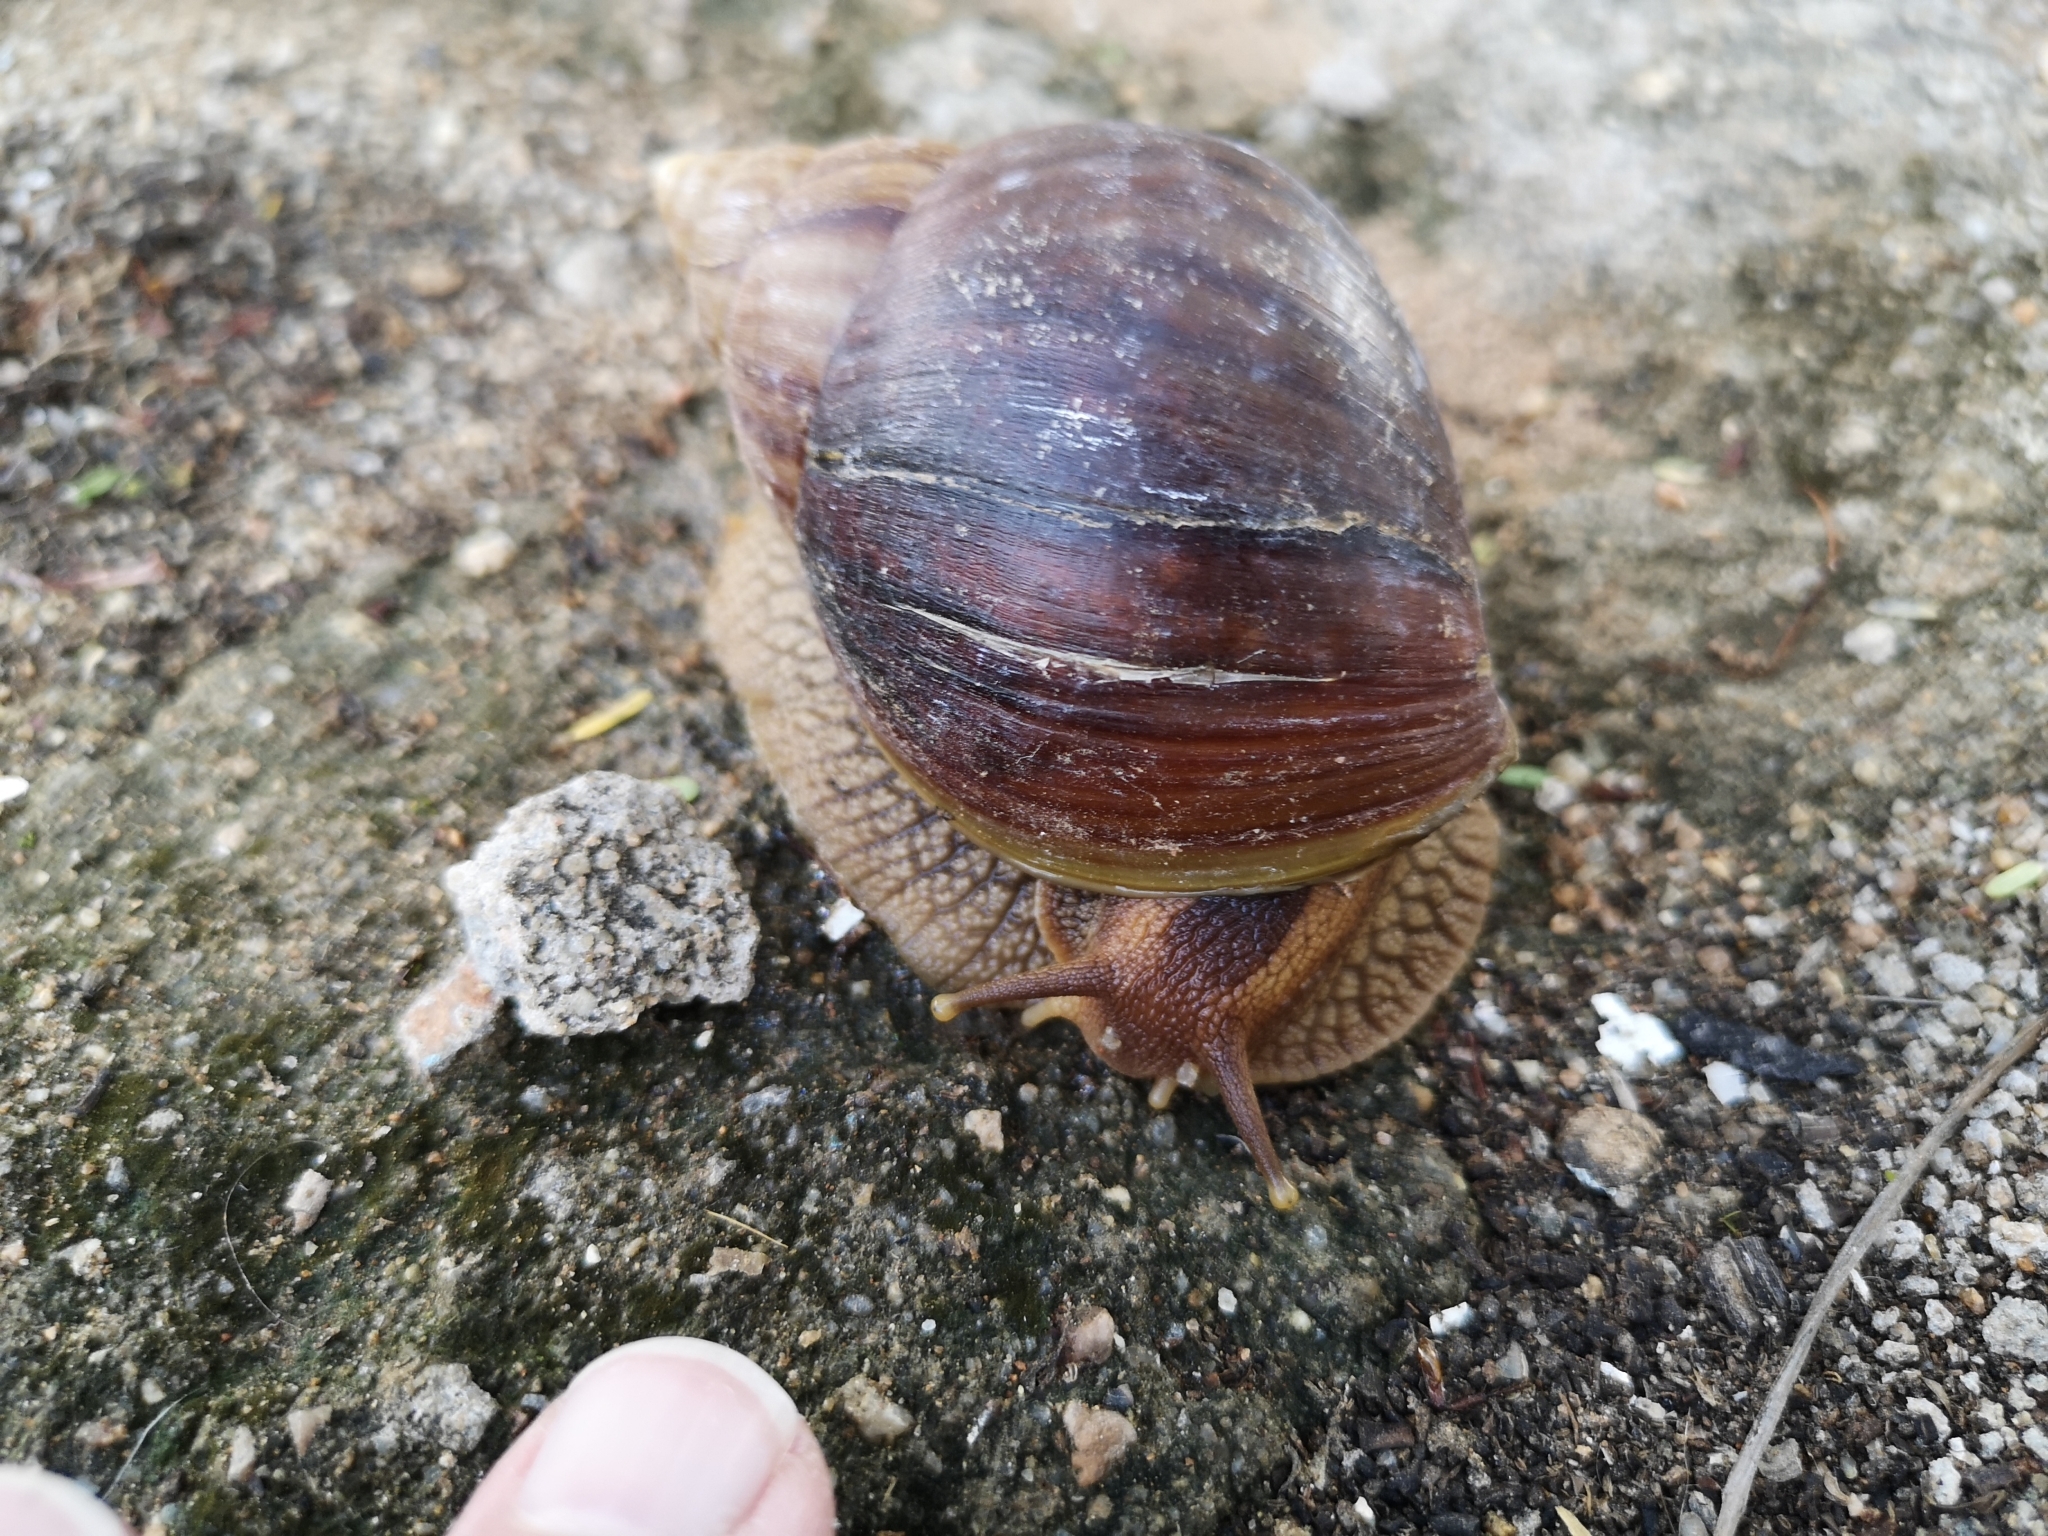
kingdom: Animalia
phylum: Mollusca
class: Gastropoda
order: Stylommatophora
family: Achatinidae
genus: Lissachatina
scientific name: Lissachatina immaculata
